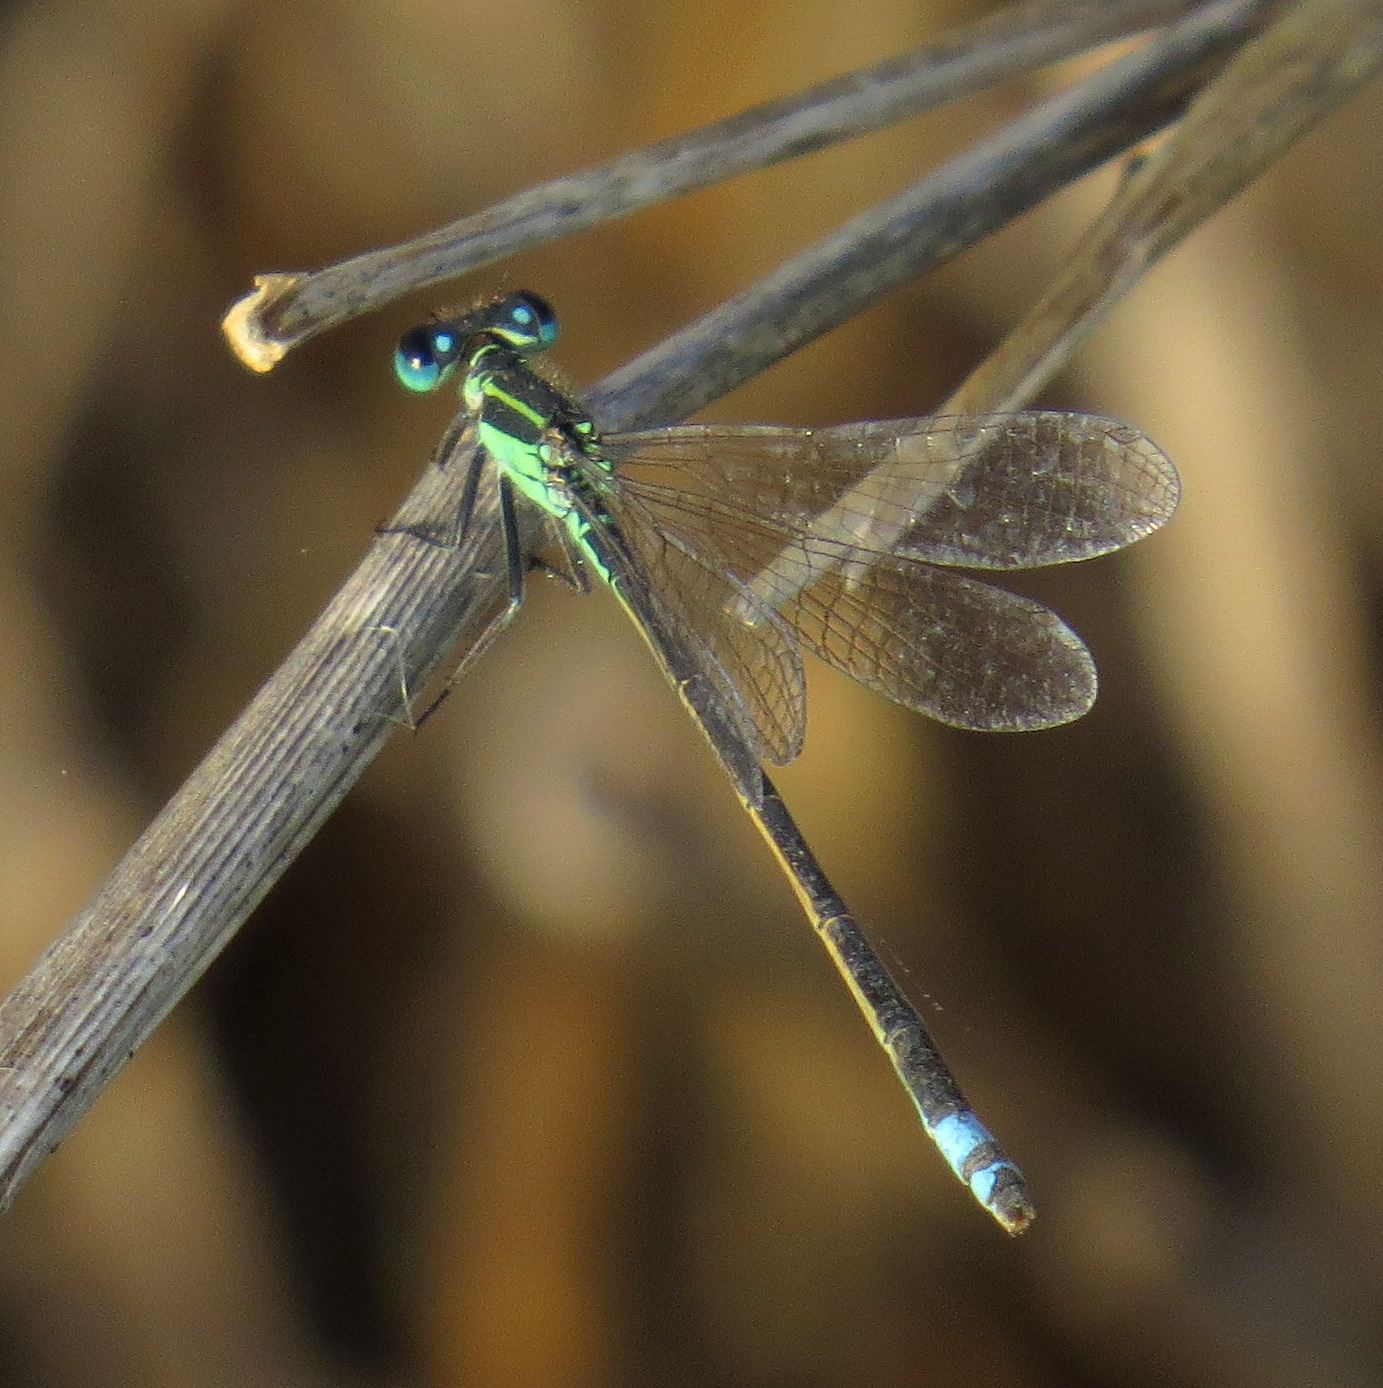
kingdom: Animalia
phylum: Arthropoda
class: Insecta
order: Odonata
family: Coenagrionidae
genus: Ischnura
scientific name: Ischnura ramburii
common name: Rambur's forktail
